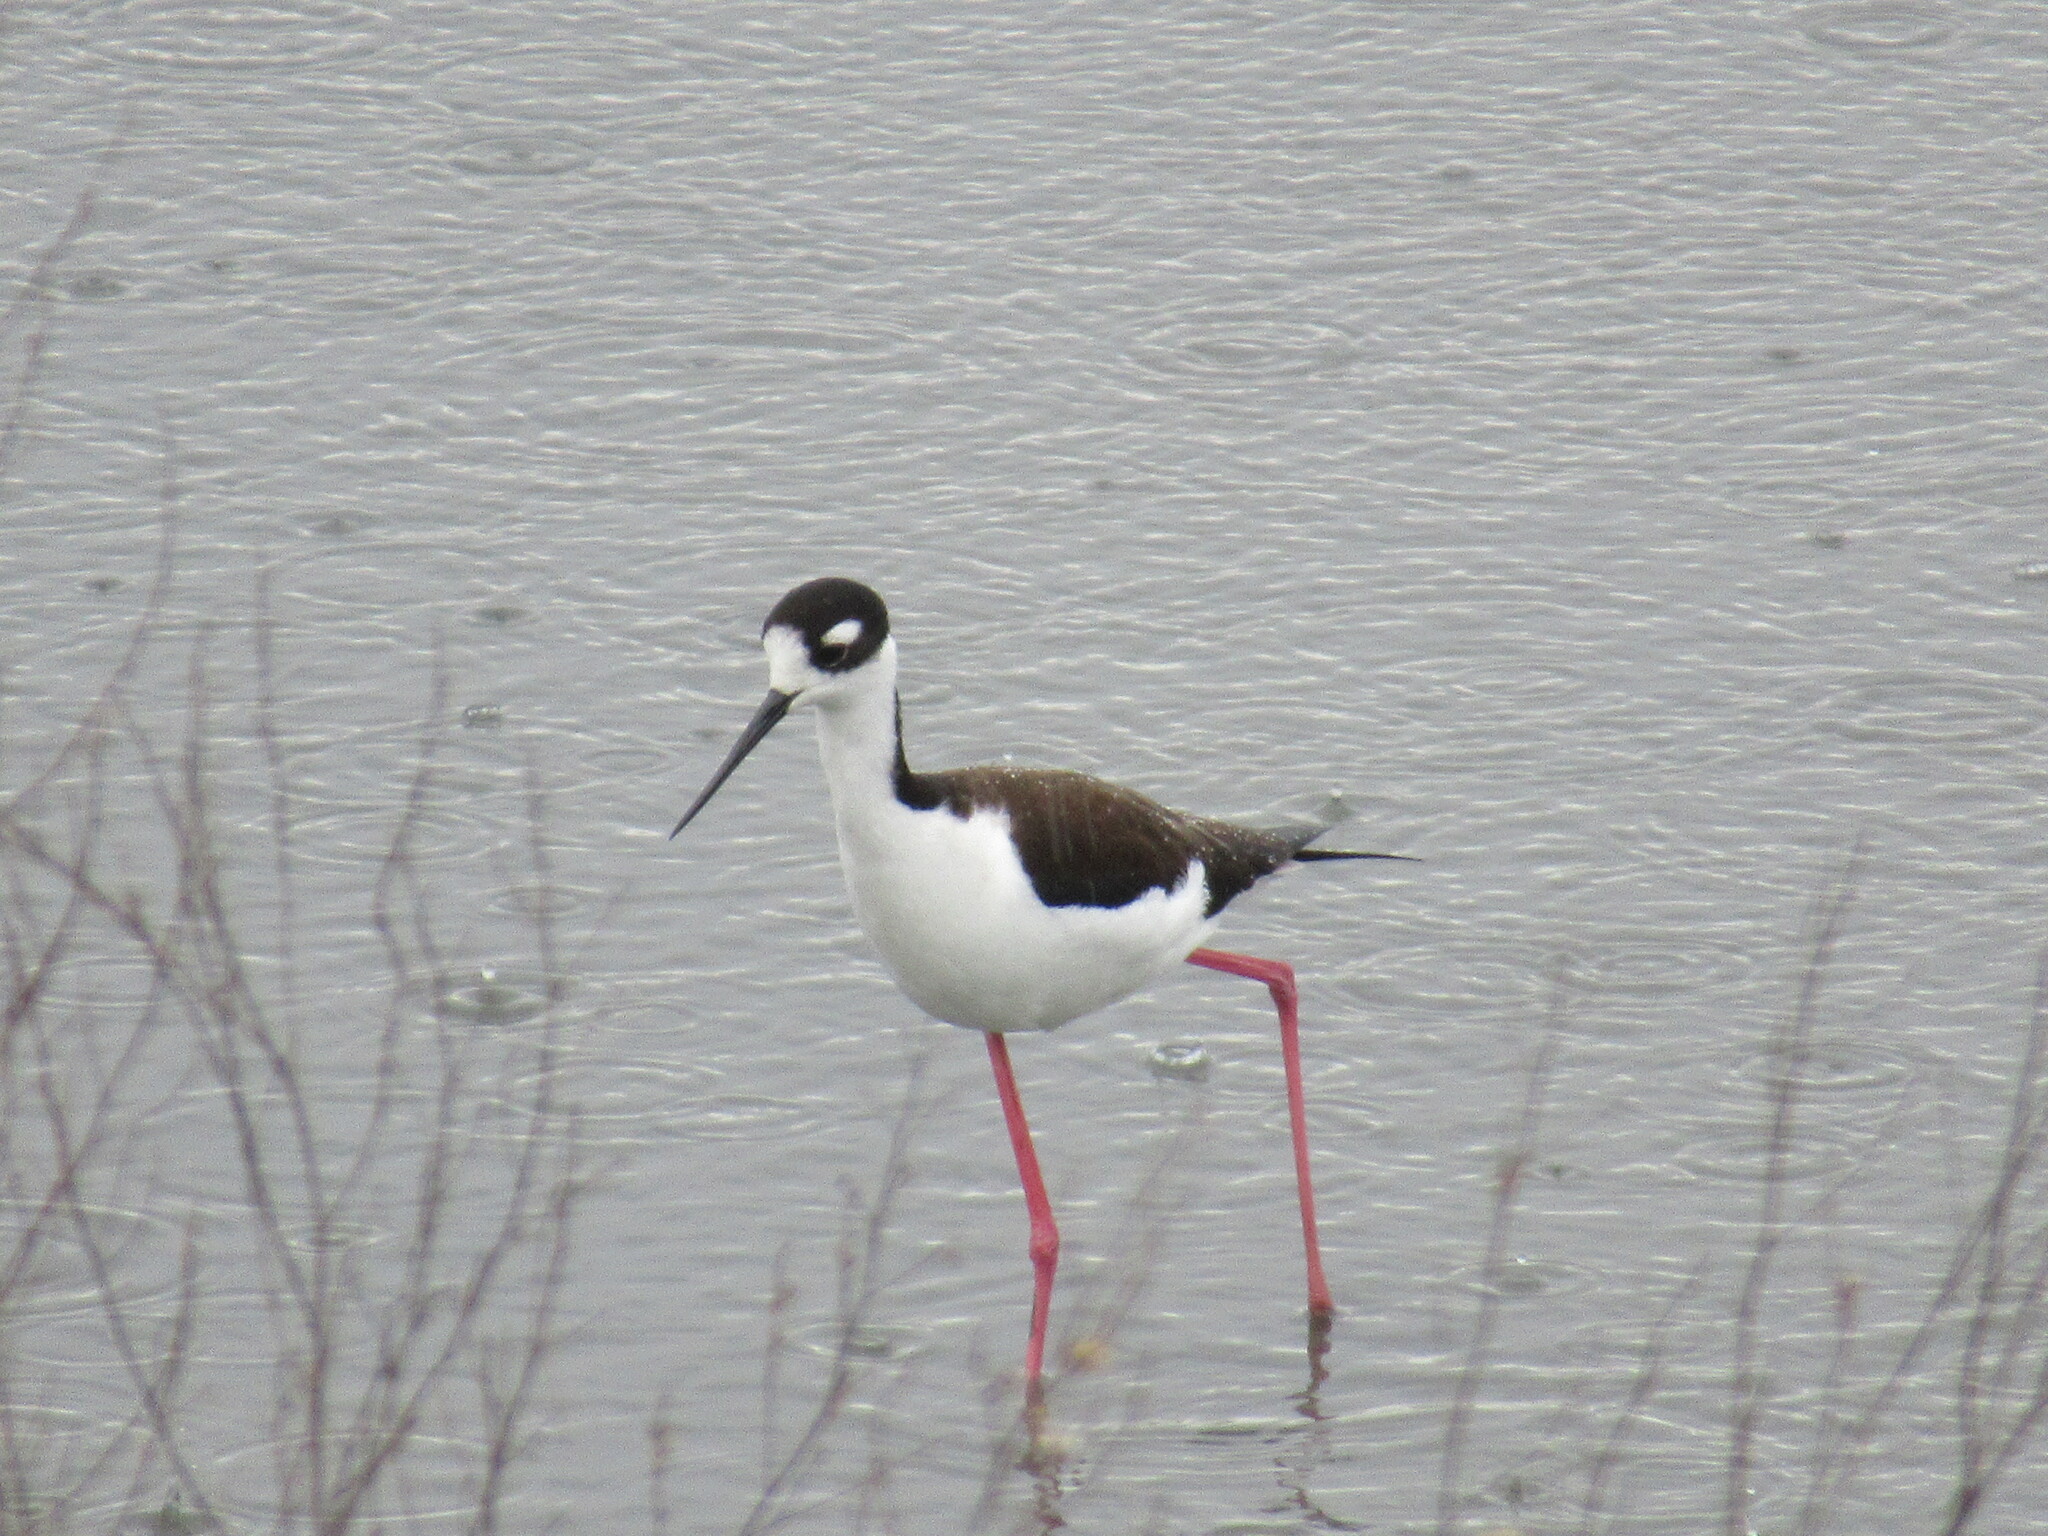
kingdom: Animalia
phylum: Chordata
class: Aves
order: Charadriiformes
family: Recurvirostridae
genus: Himantopus
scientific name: Himantopus mexicanus
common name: Black-necked stilt
